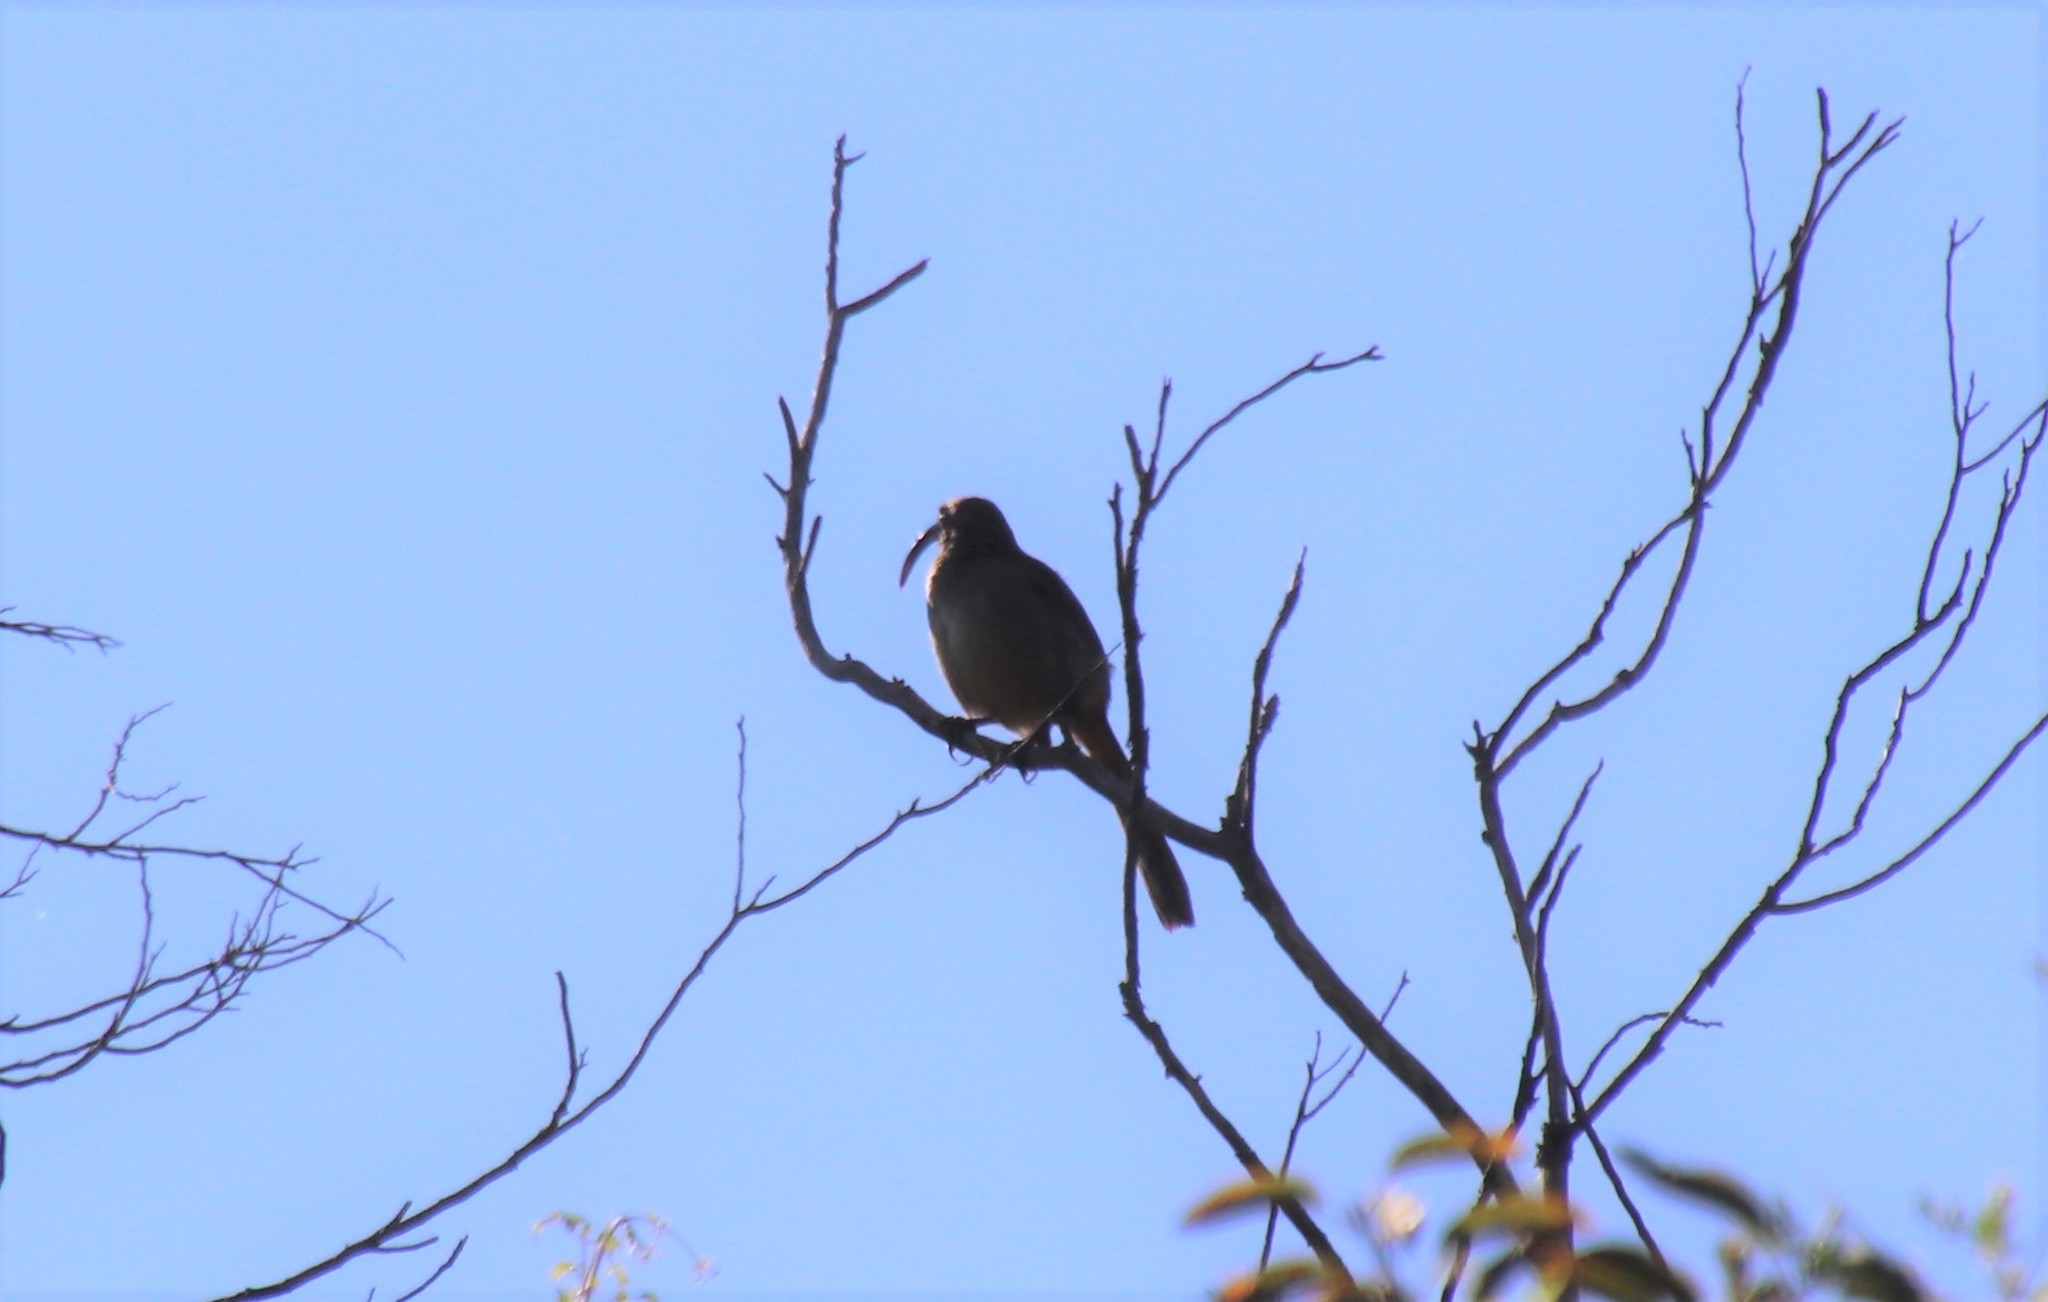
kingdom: Animalia
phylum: Chordata
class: Aves
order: Passeriformes
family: Mimidae
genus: Toxostoma
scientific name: Toxostoma redivivum
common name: California thrasher
